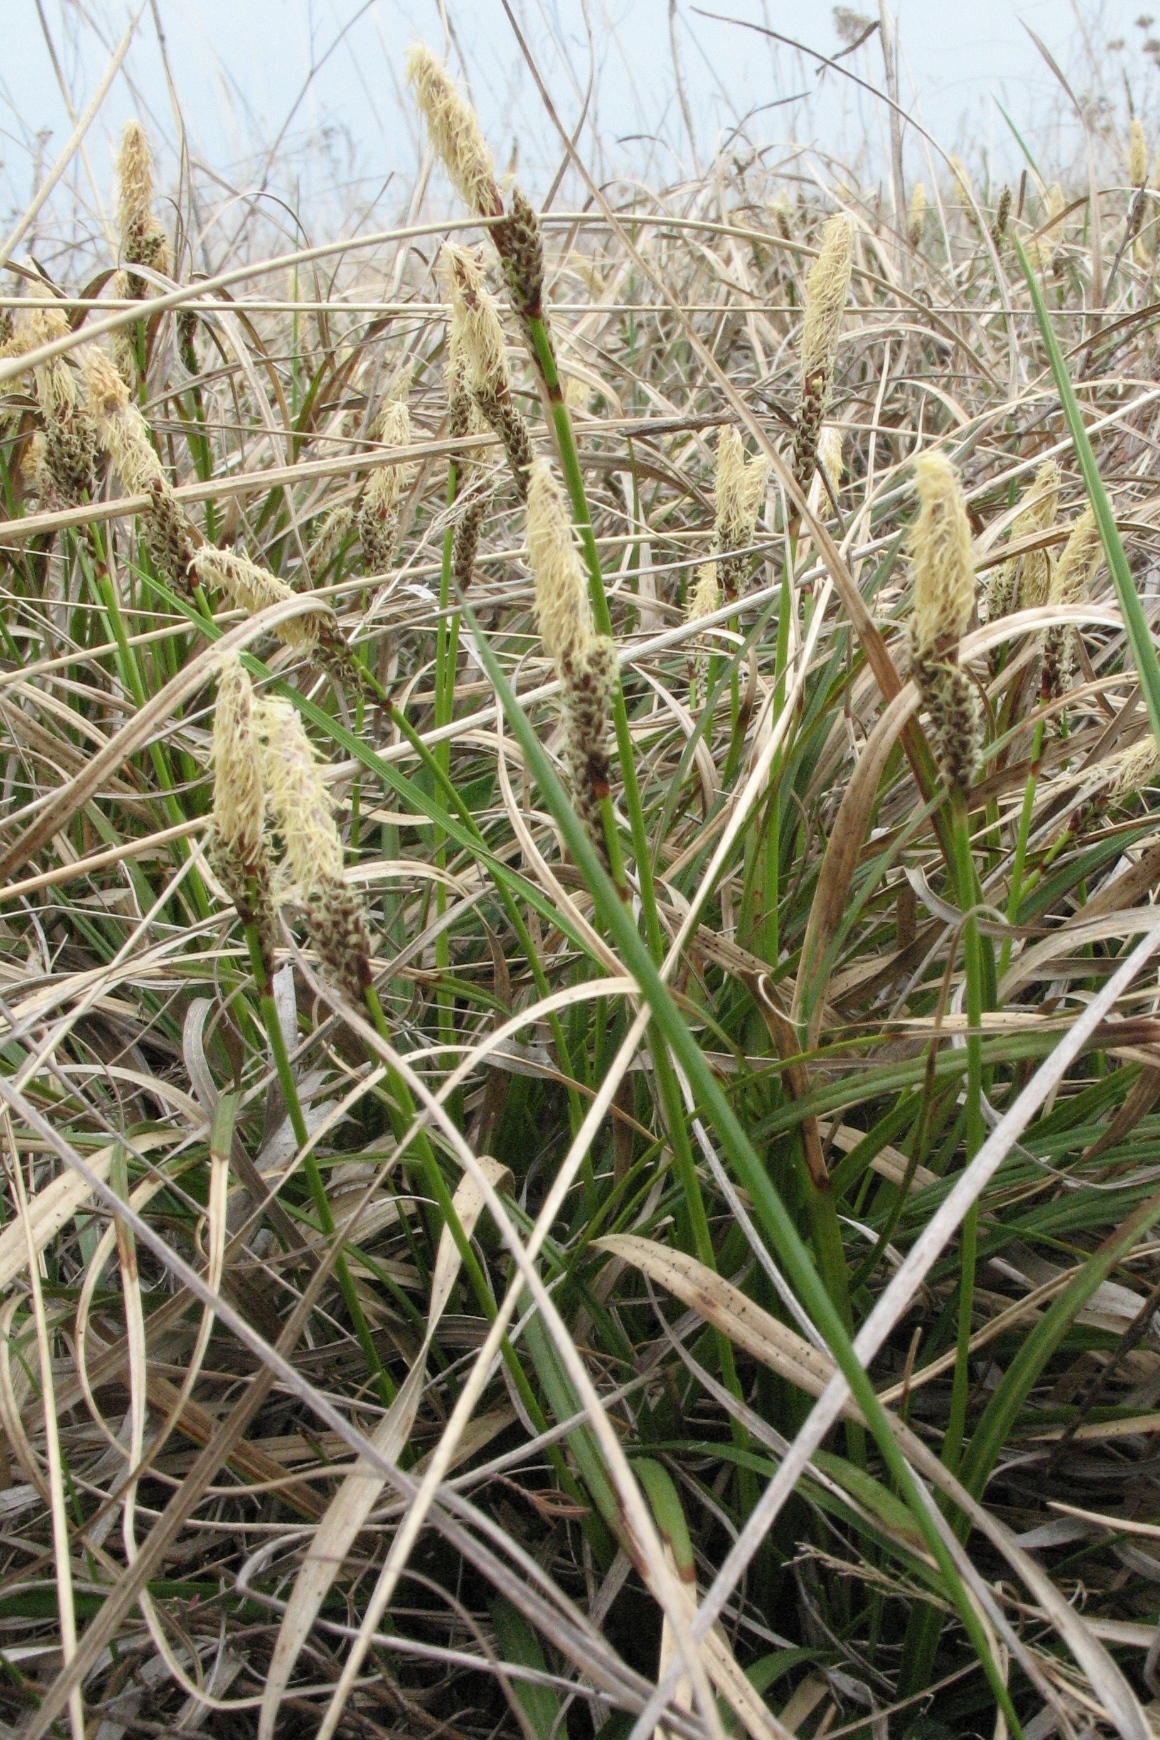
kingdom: Plantae
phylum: Tracheophyta
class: Liliopsida
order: Poales
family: Cyperaceae
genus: Carex
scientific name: Carex ericetorum
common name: Rare spring-sedge
